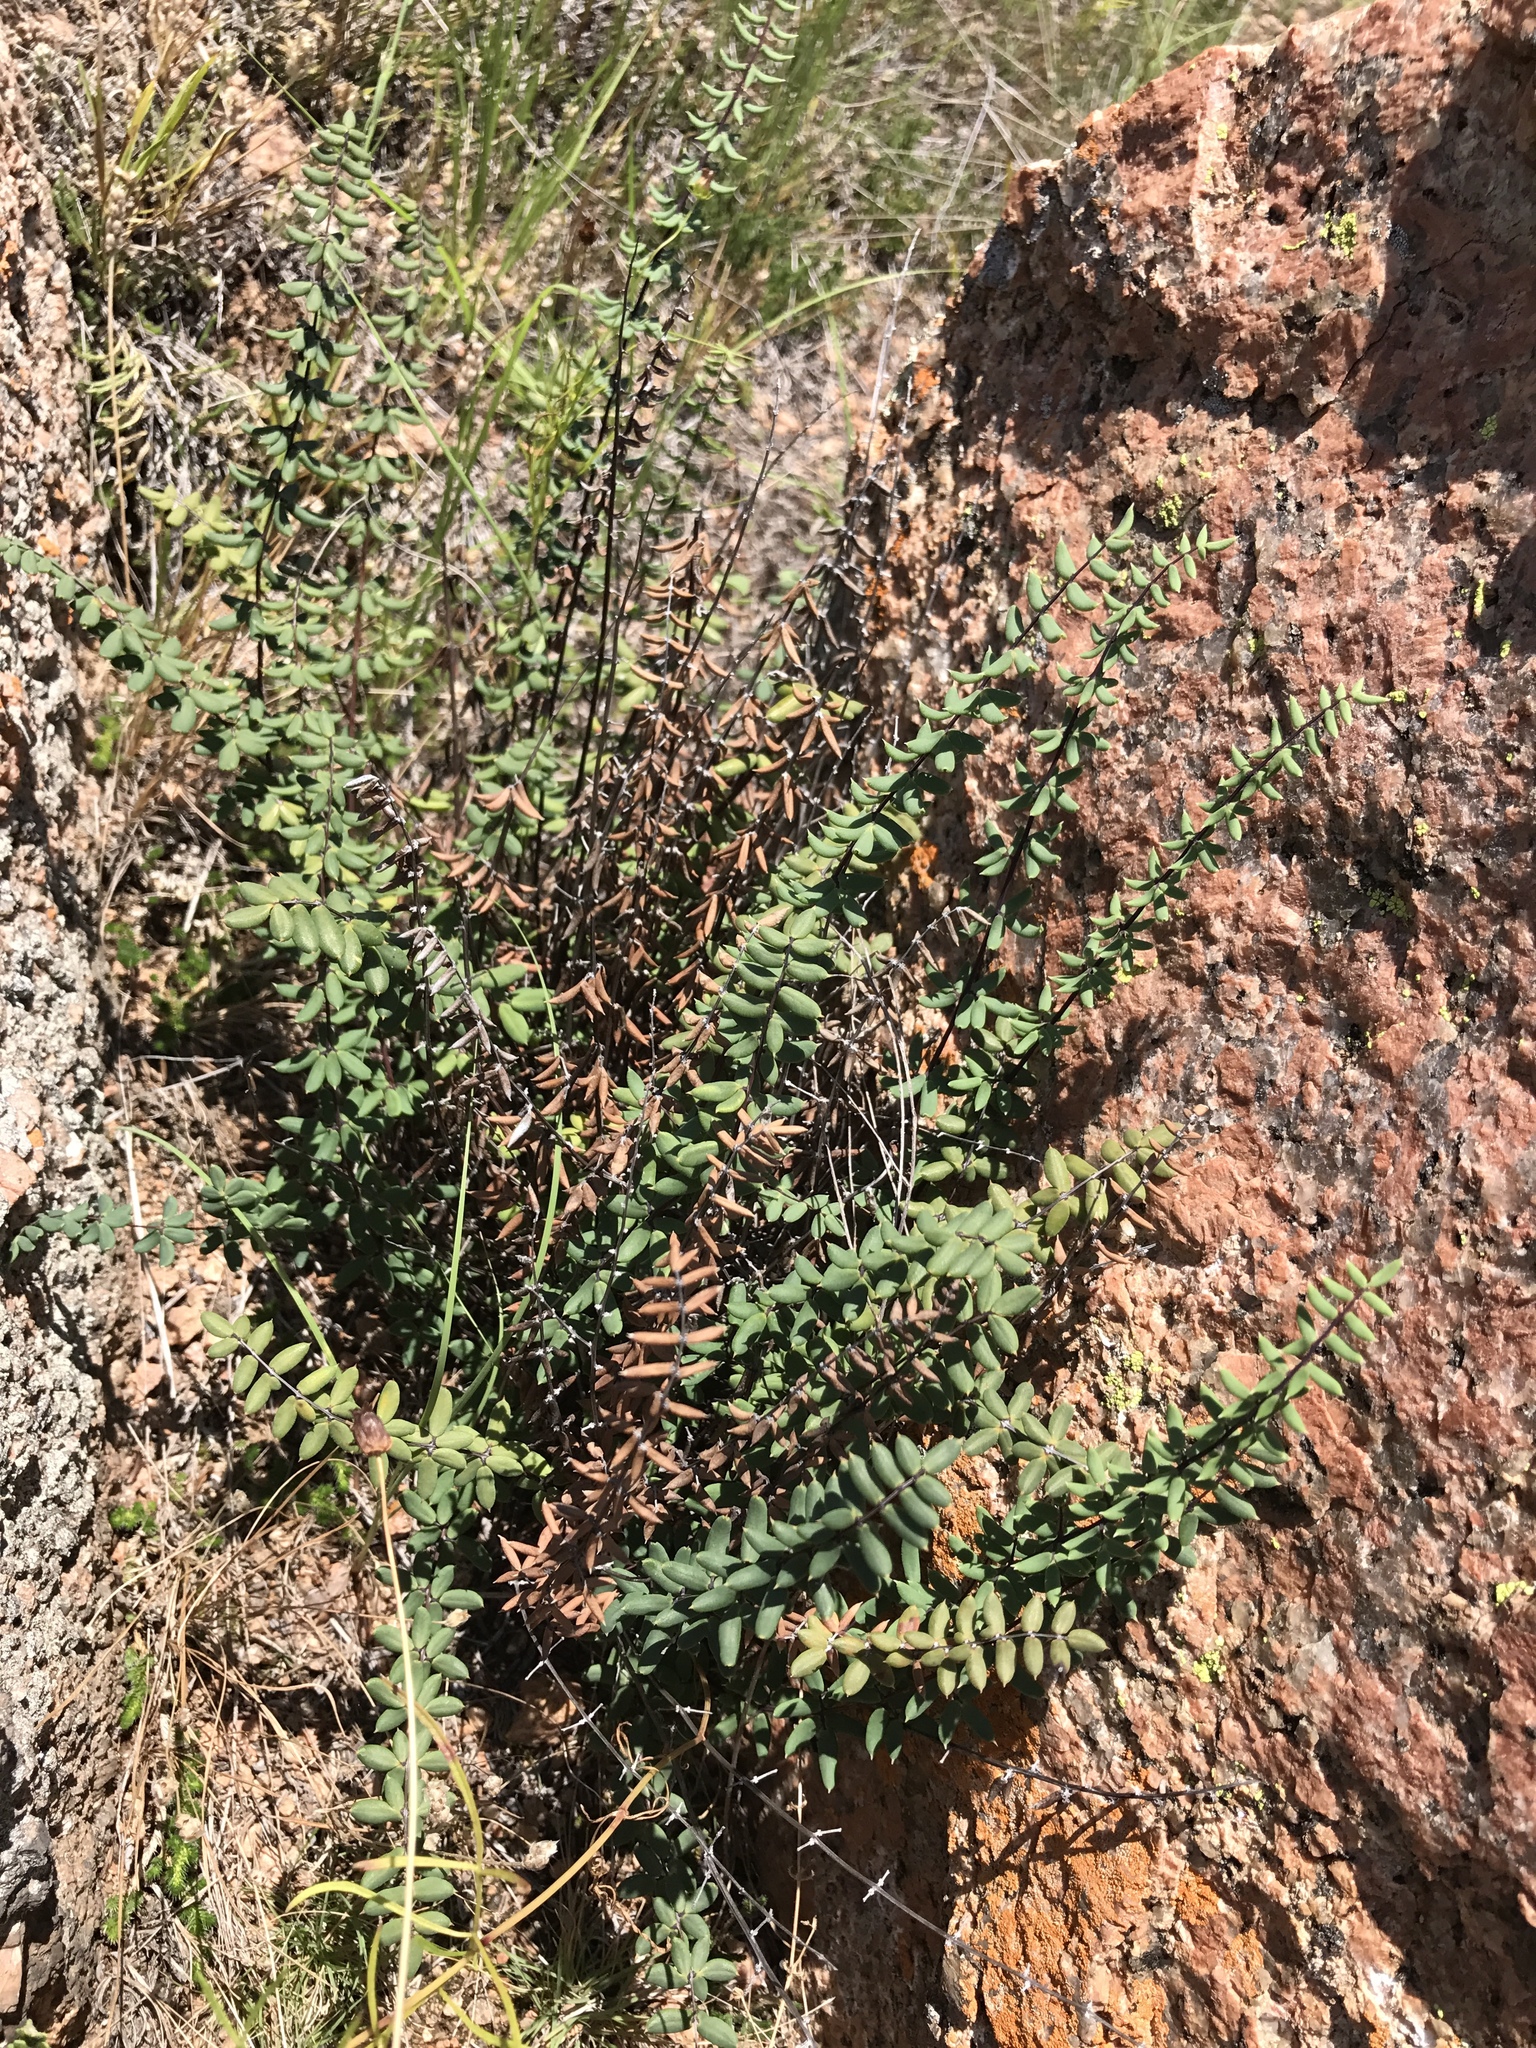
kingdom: Plantae
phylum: Tracheophyta
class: Polypodiopsida
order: Polypodiales
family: Pteridaceae
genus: Pellaea
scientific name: Pellaea wrightiana
